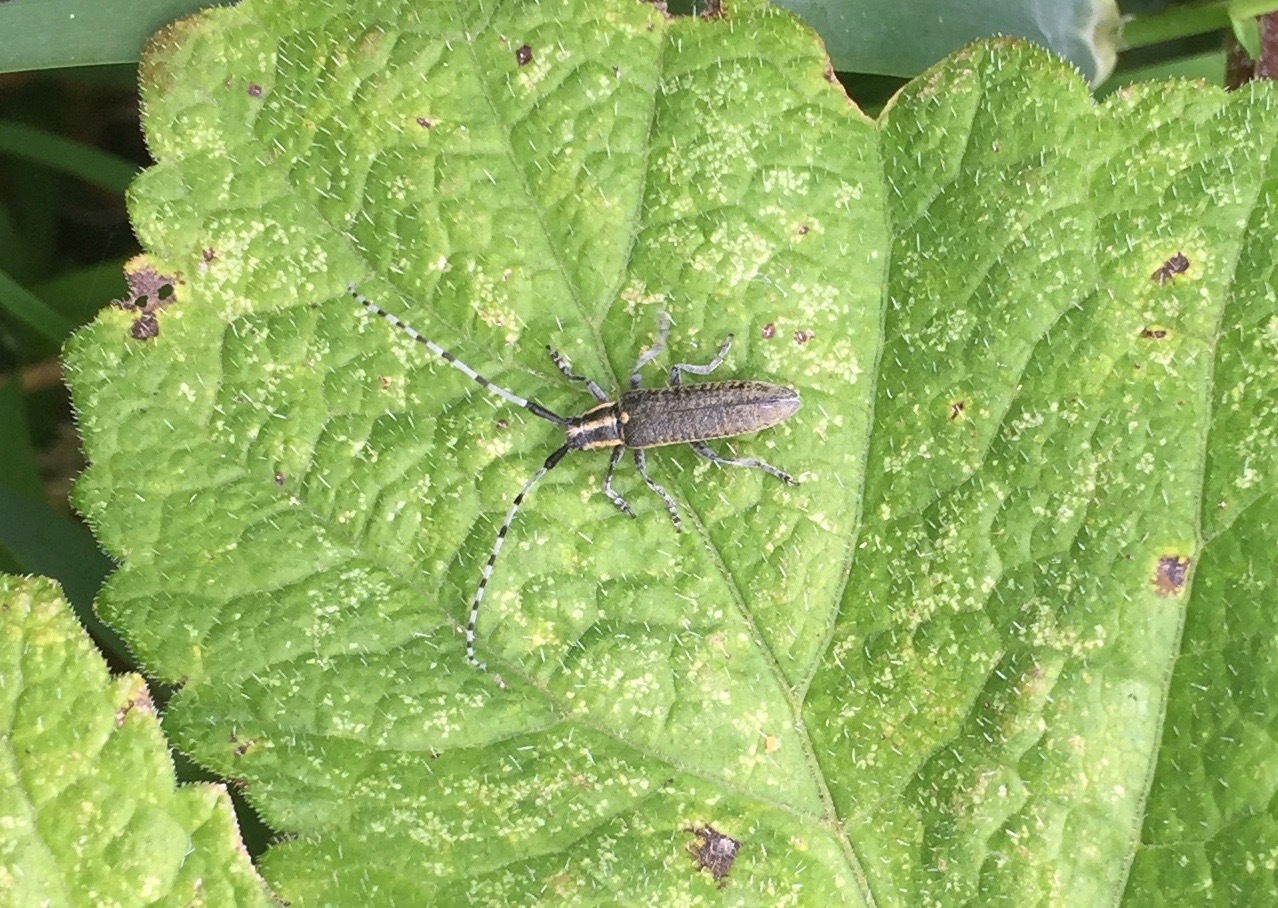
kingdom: Animalia
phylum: Arthropoda
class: Insecta
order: Coleoptera
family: Cerambycidae
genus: Agapanthia
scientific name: Agapanthia villosoviridescens
